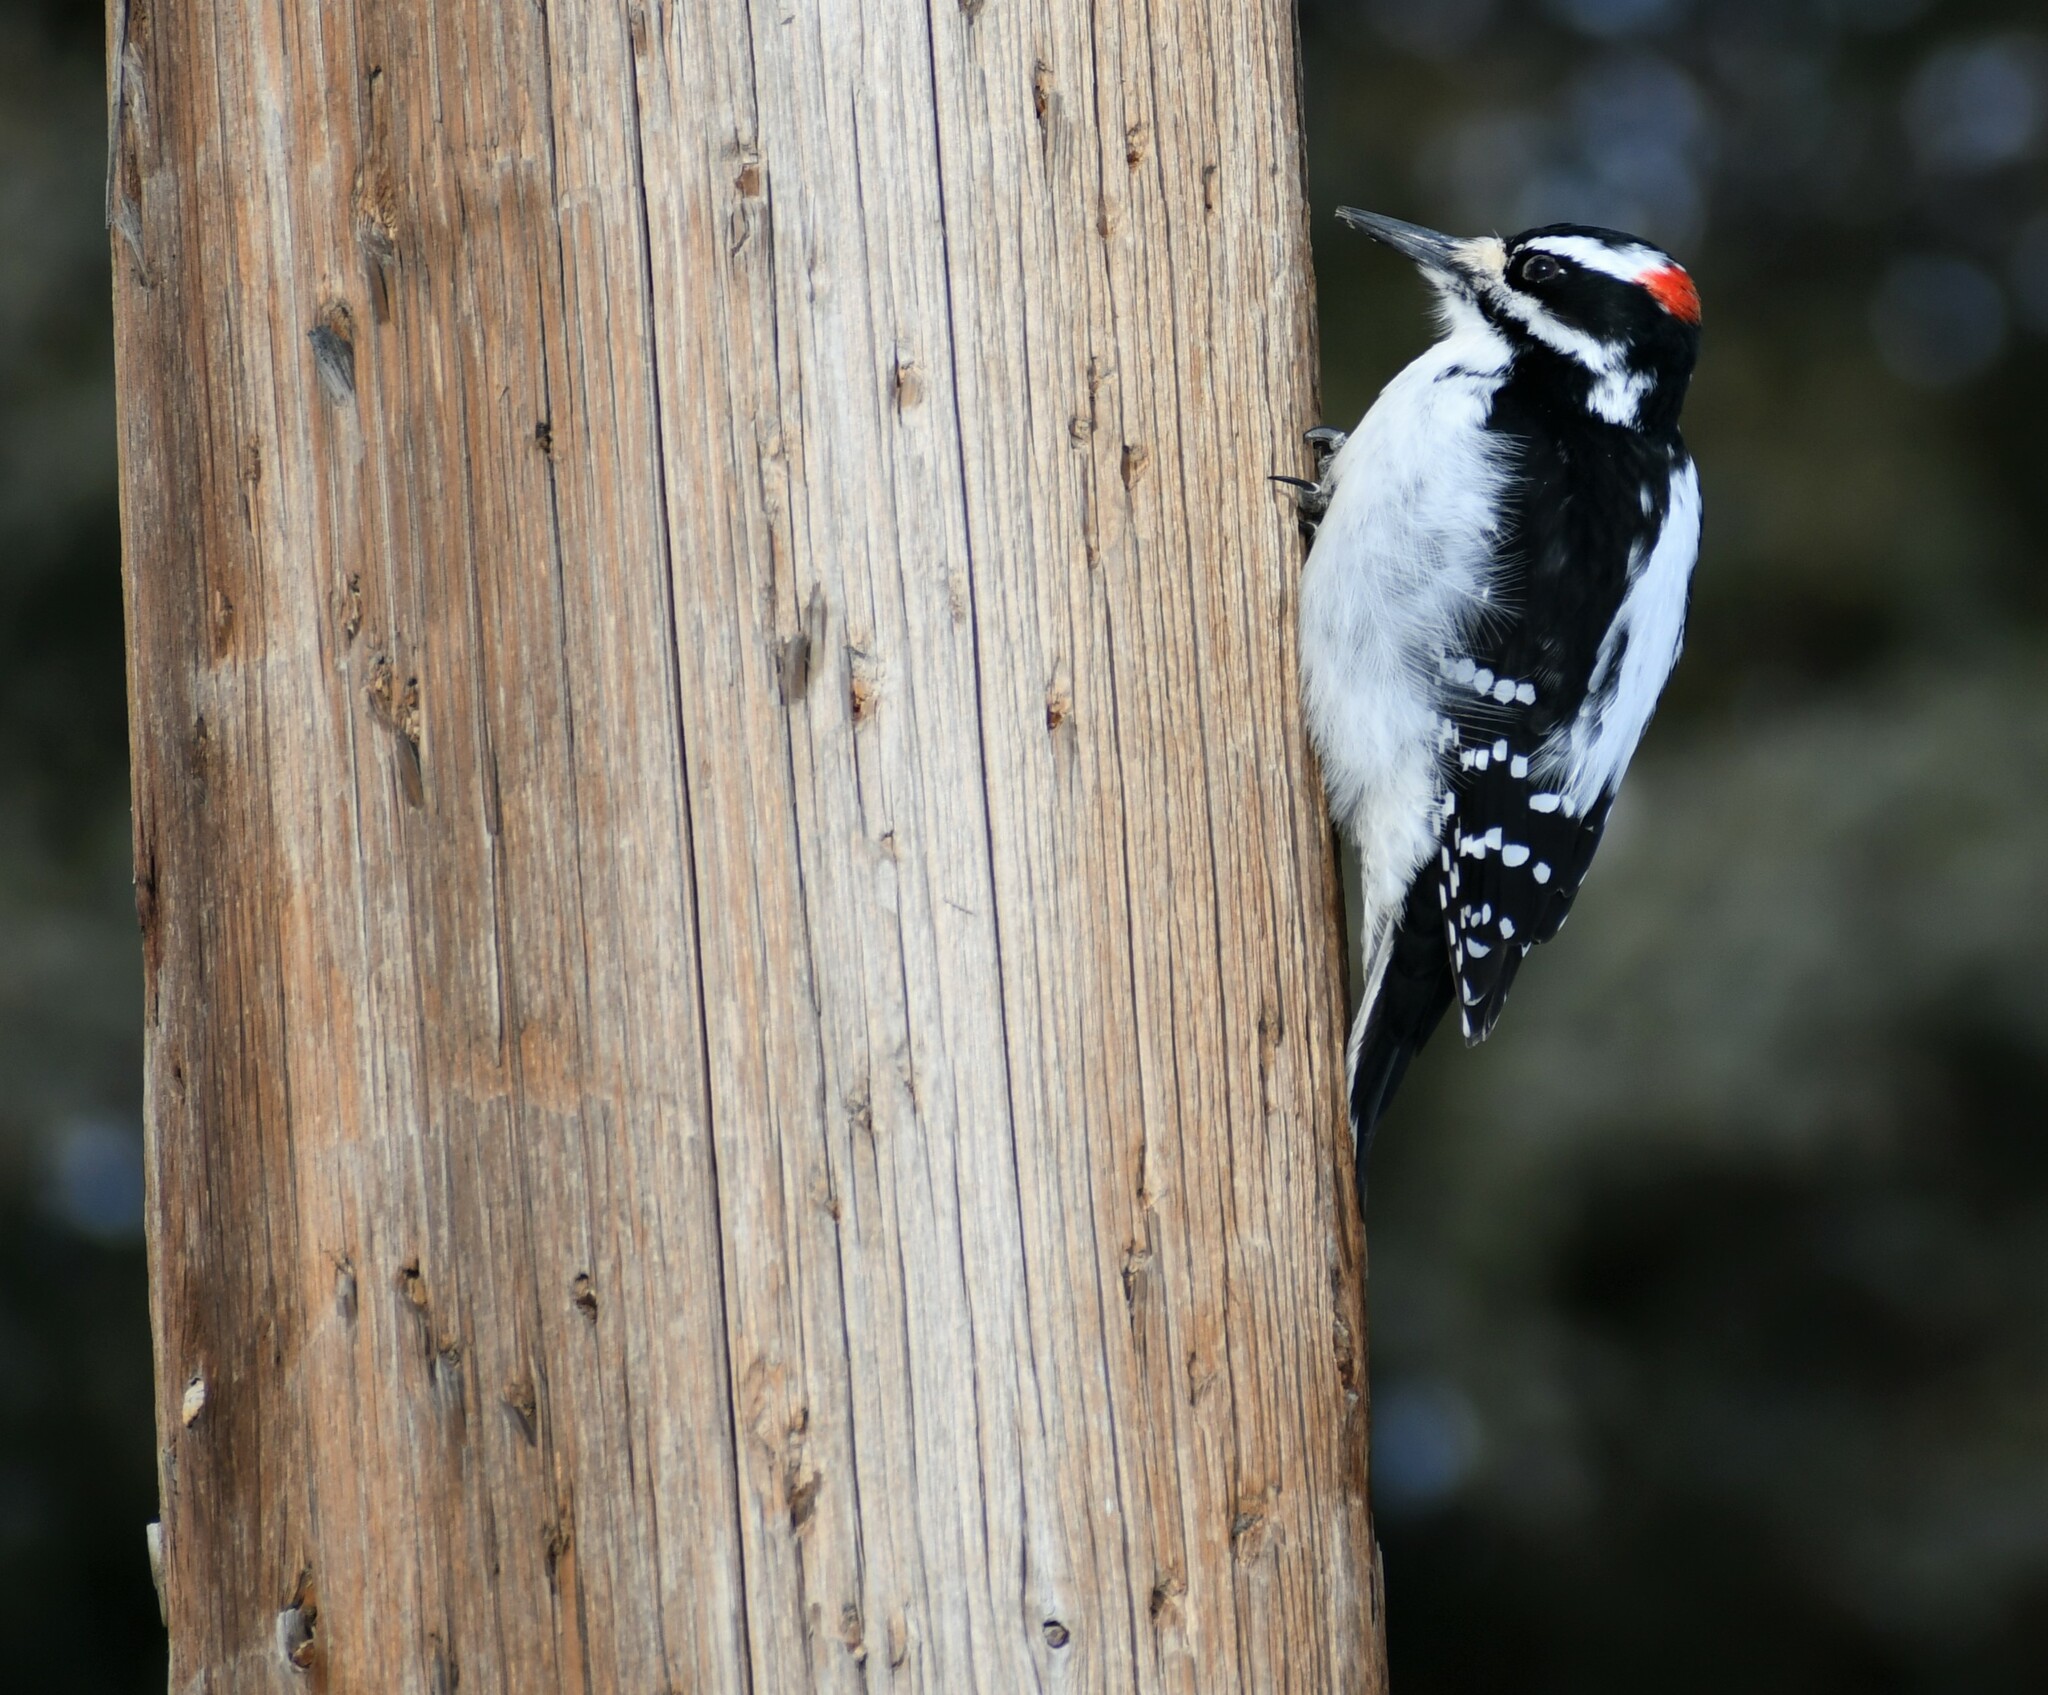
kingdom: Animalia
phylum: Chordata
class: Aves
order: Piciformes
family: Picidae
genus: Leuconotopicus
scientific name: Leuconotopicus villosus
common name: Hairy woodpecker
